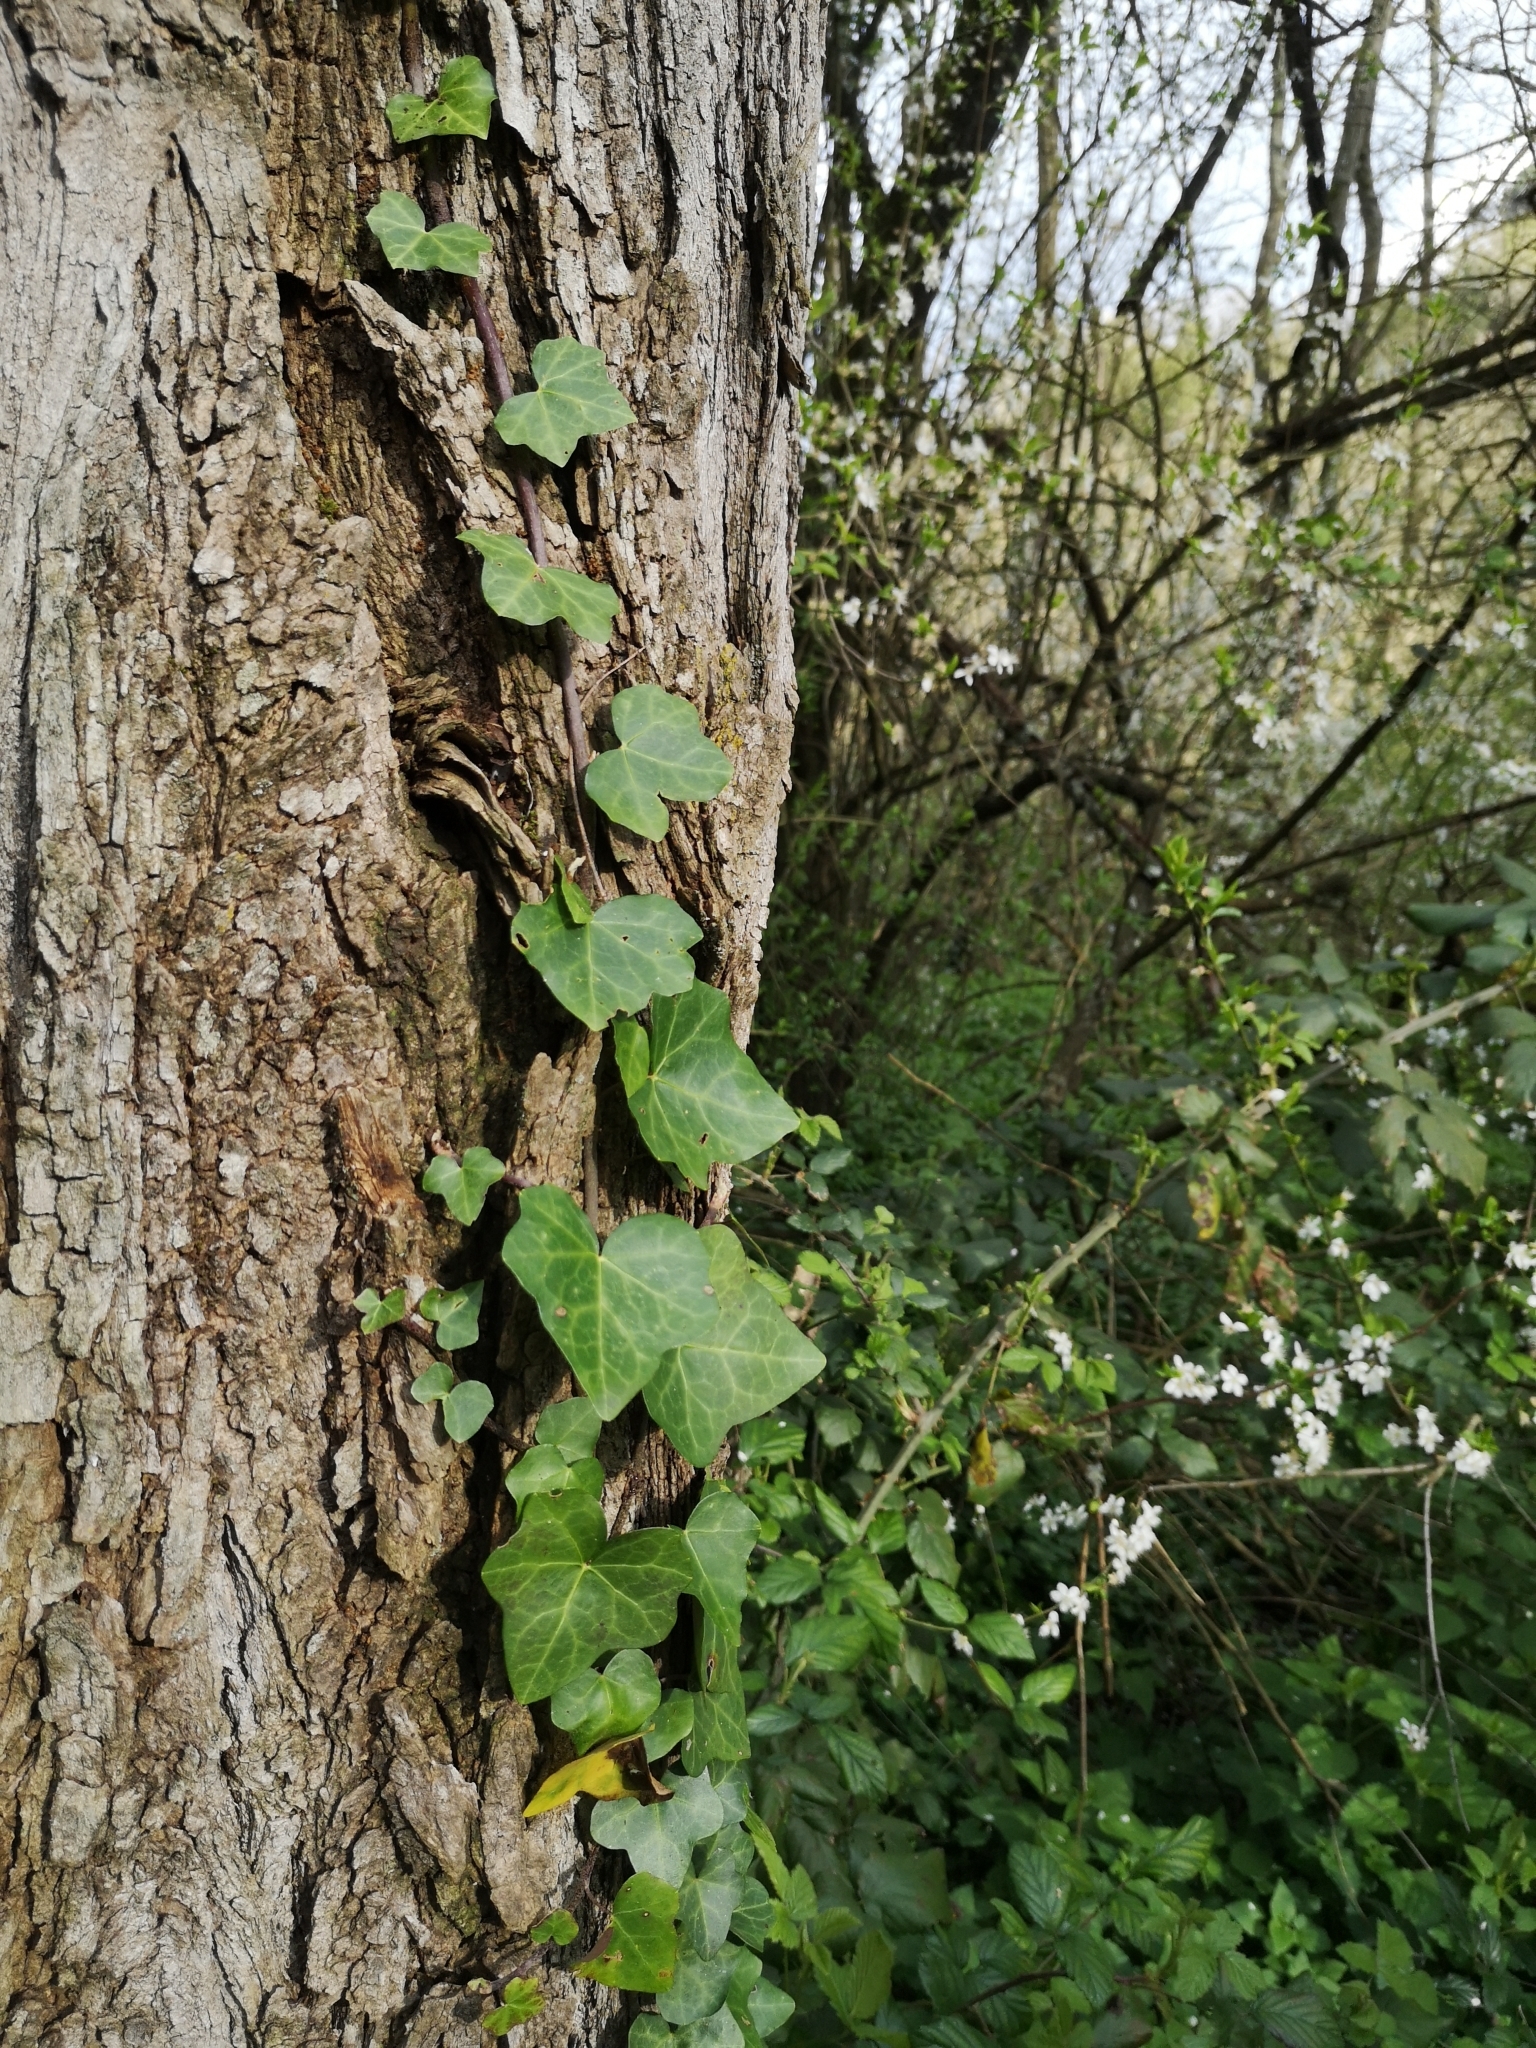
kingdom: Plantae
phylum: Tracheophyta
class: Magnoliopsida
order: Apiales
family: Araliaceae
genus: Hedera
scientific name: Hedera helix
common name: Ivy
